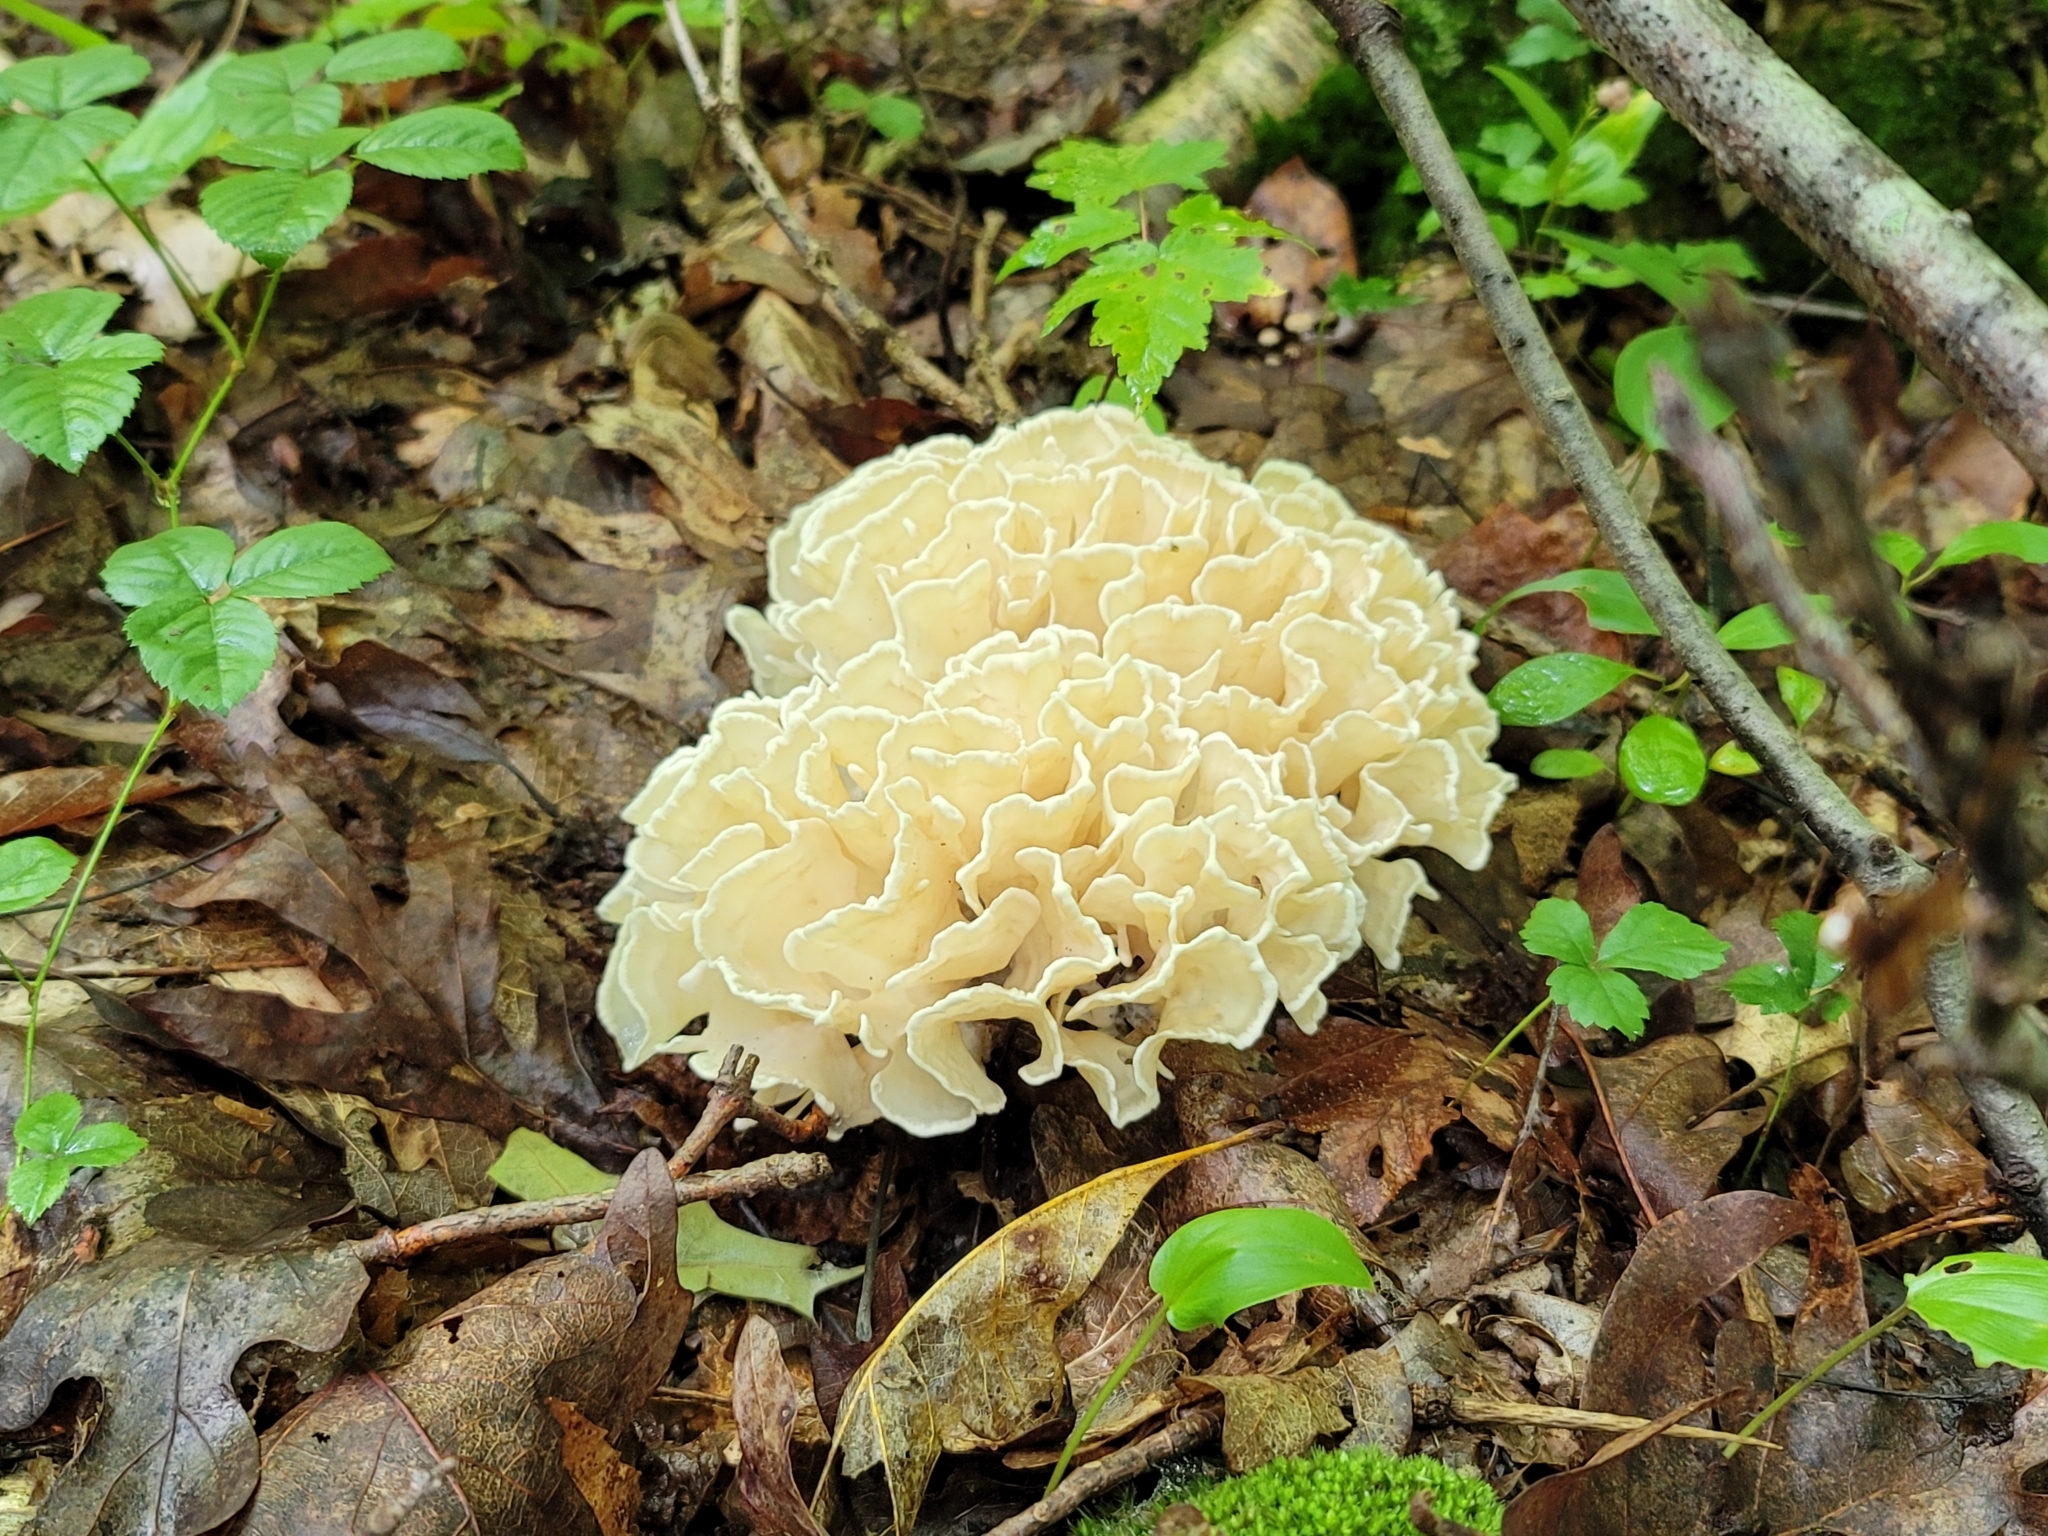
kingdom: Fungi
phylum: Basidiomycota
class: Agaricomycetes
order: Polyporales
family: Sparassidaceae
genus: Sparassis
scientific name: Sparassis spathulata
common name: Eastern cauliflower mushroom
